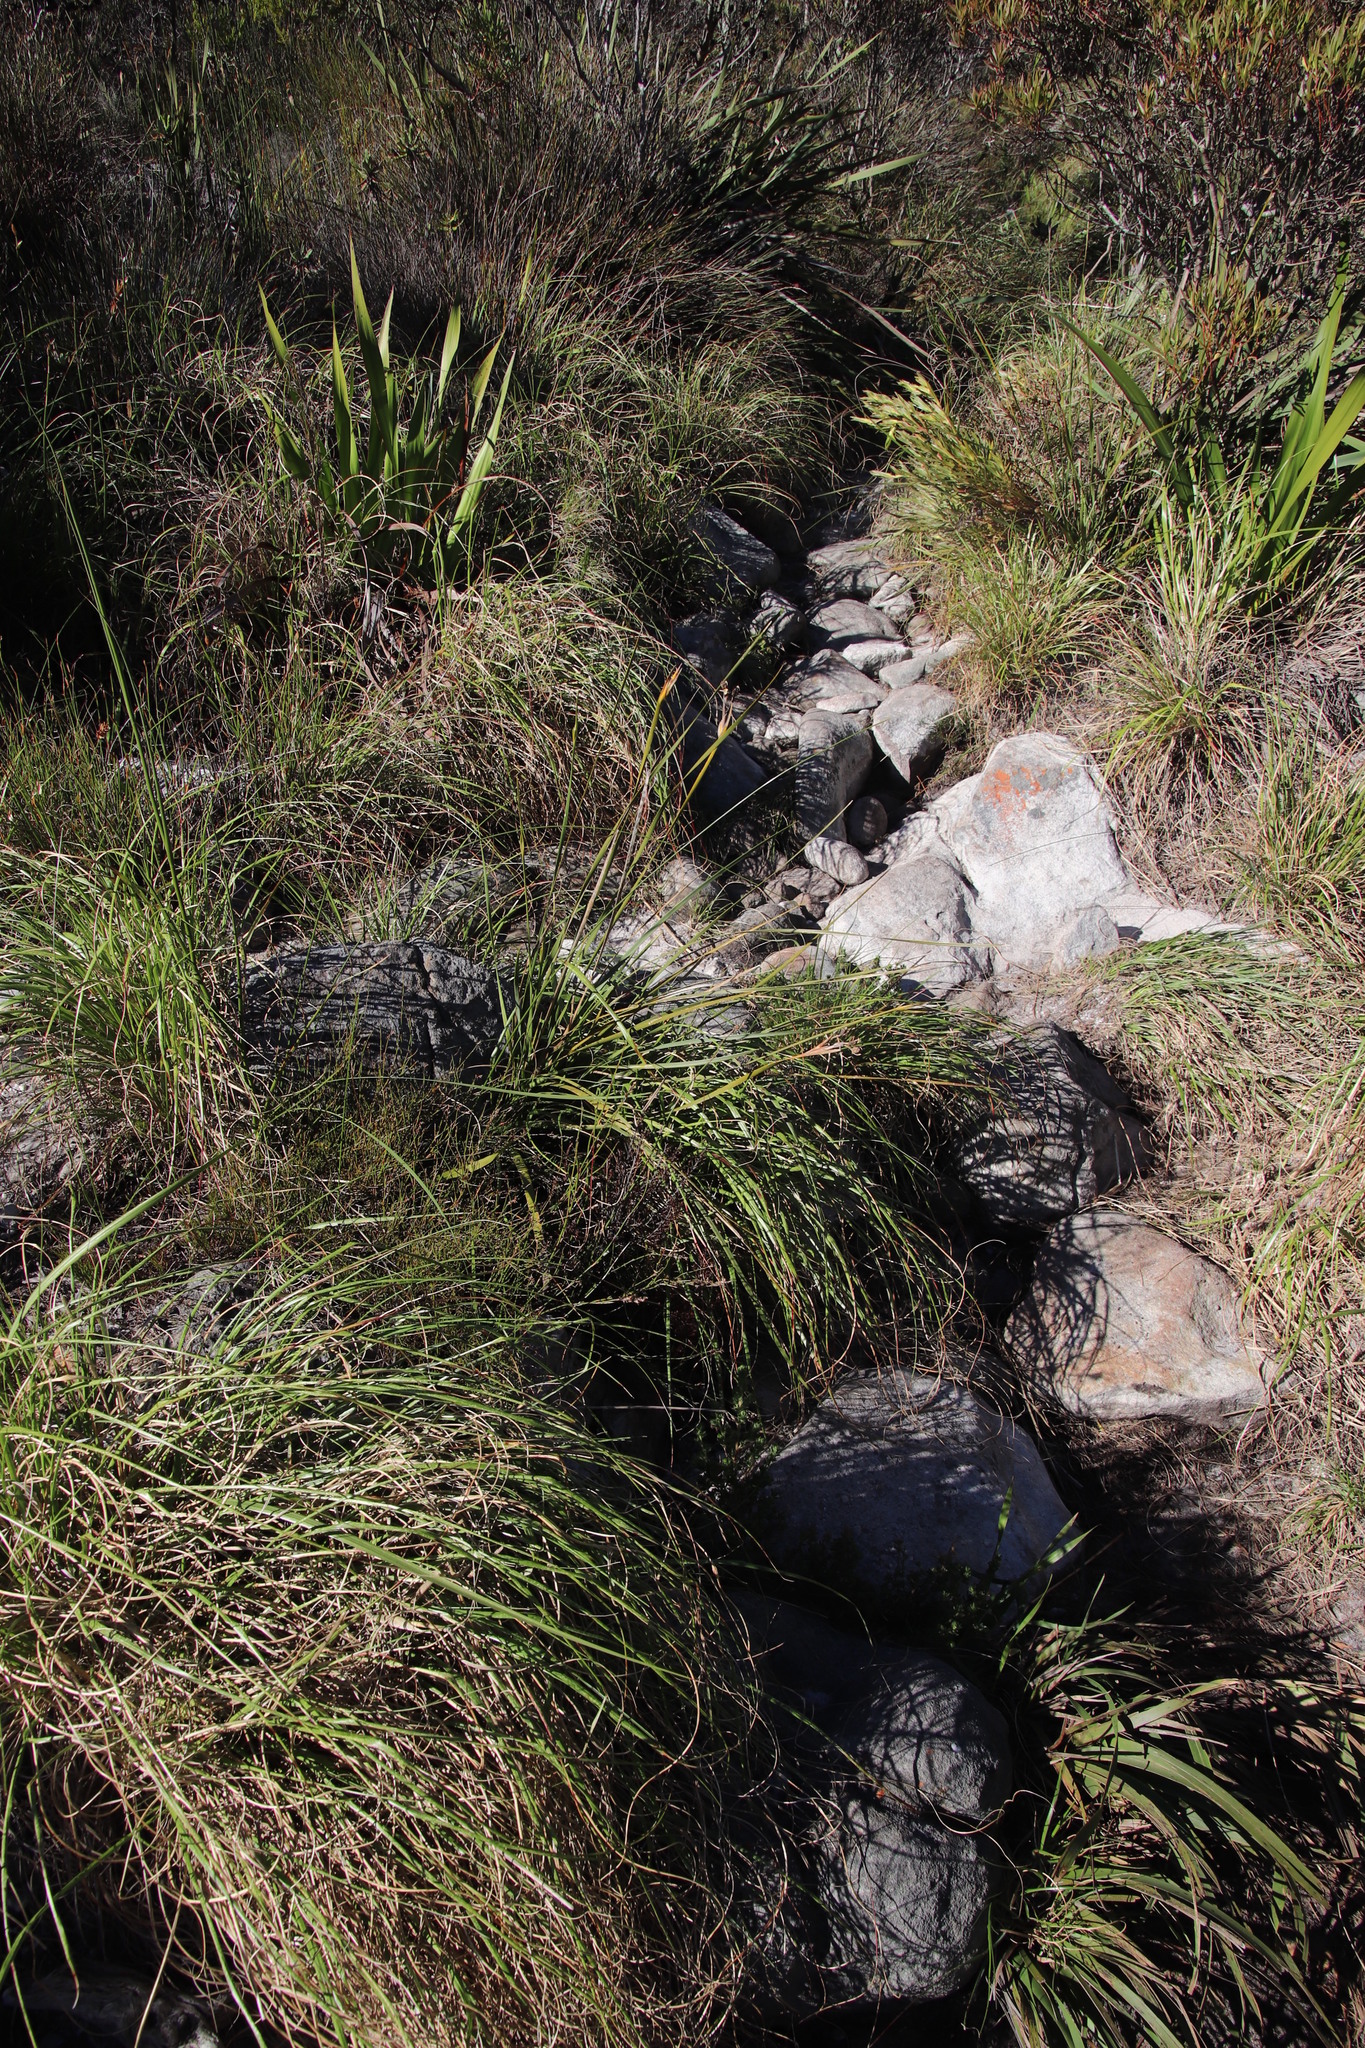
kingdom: Plantae
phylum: Tracheophyta
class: Liliopsida
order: Asparagales
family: Iridaceae
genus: Bobartia
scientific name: Bobartia gladiata
